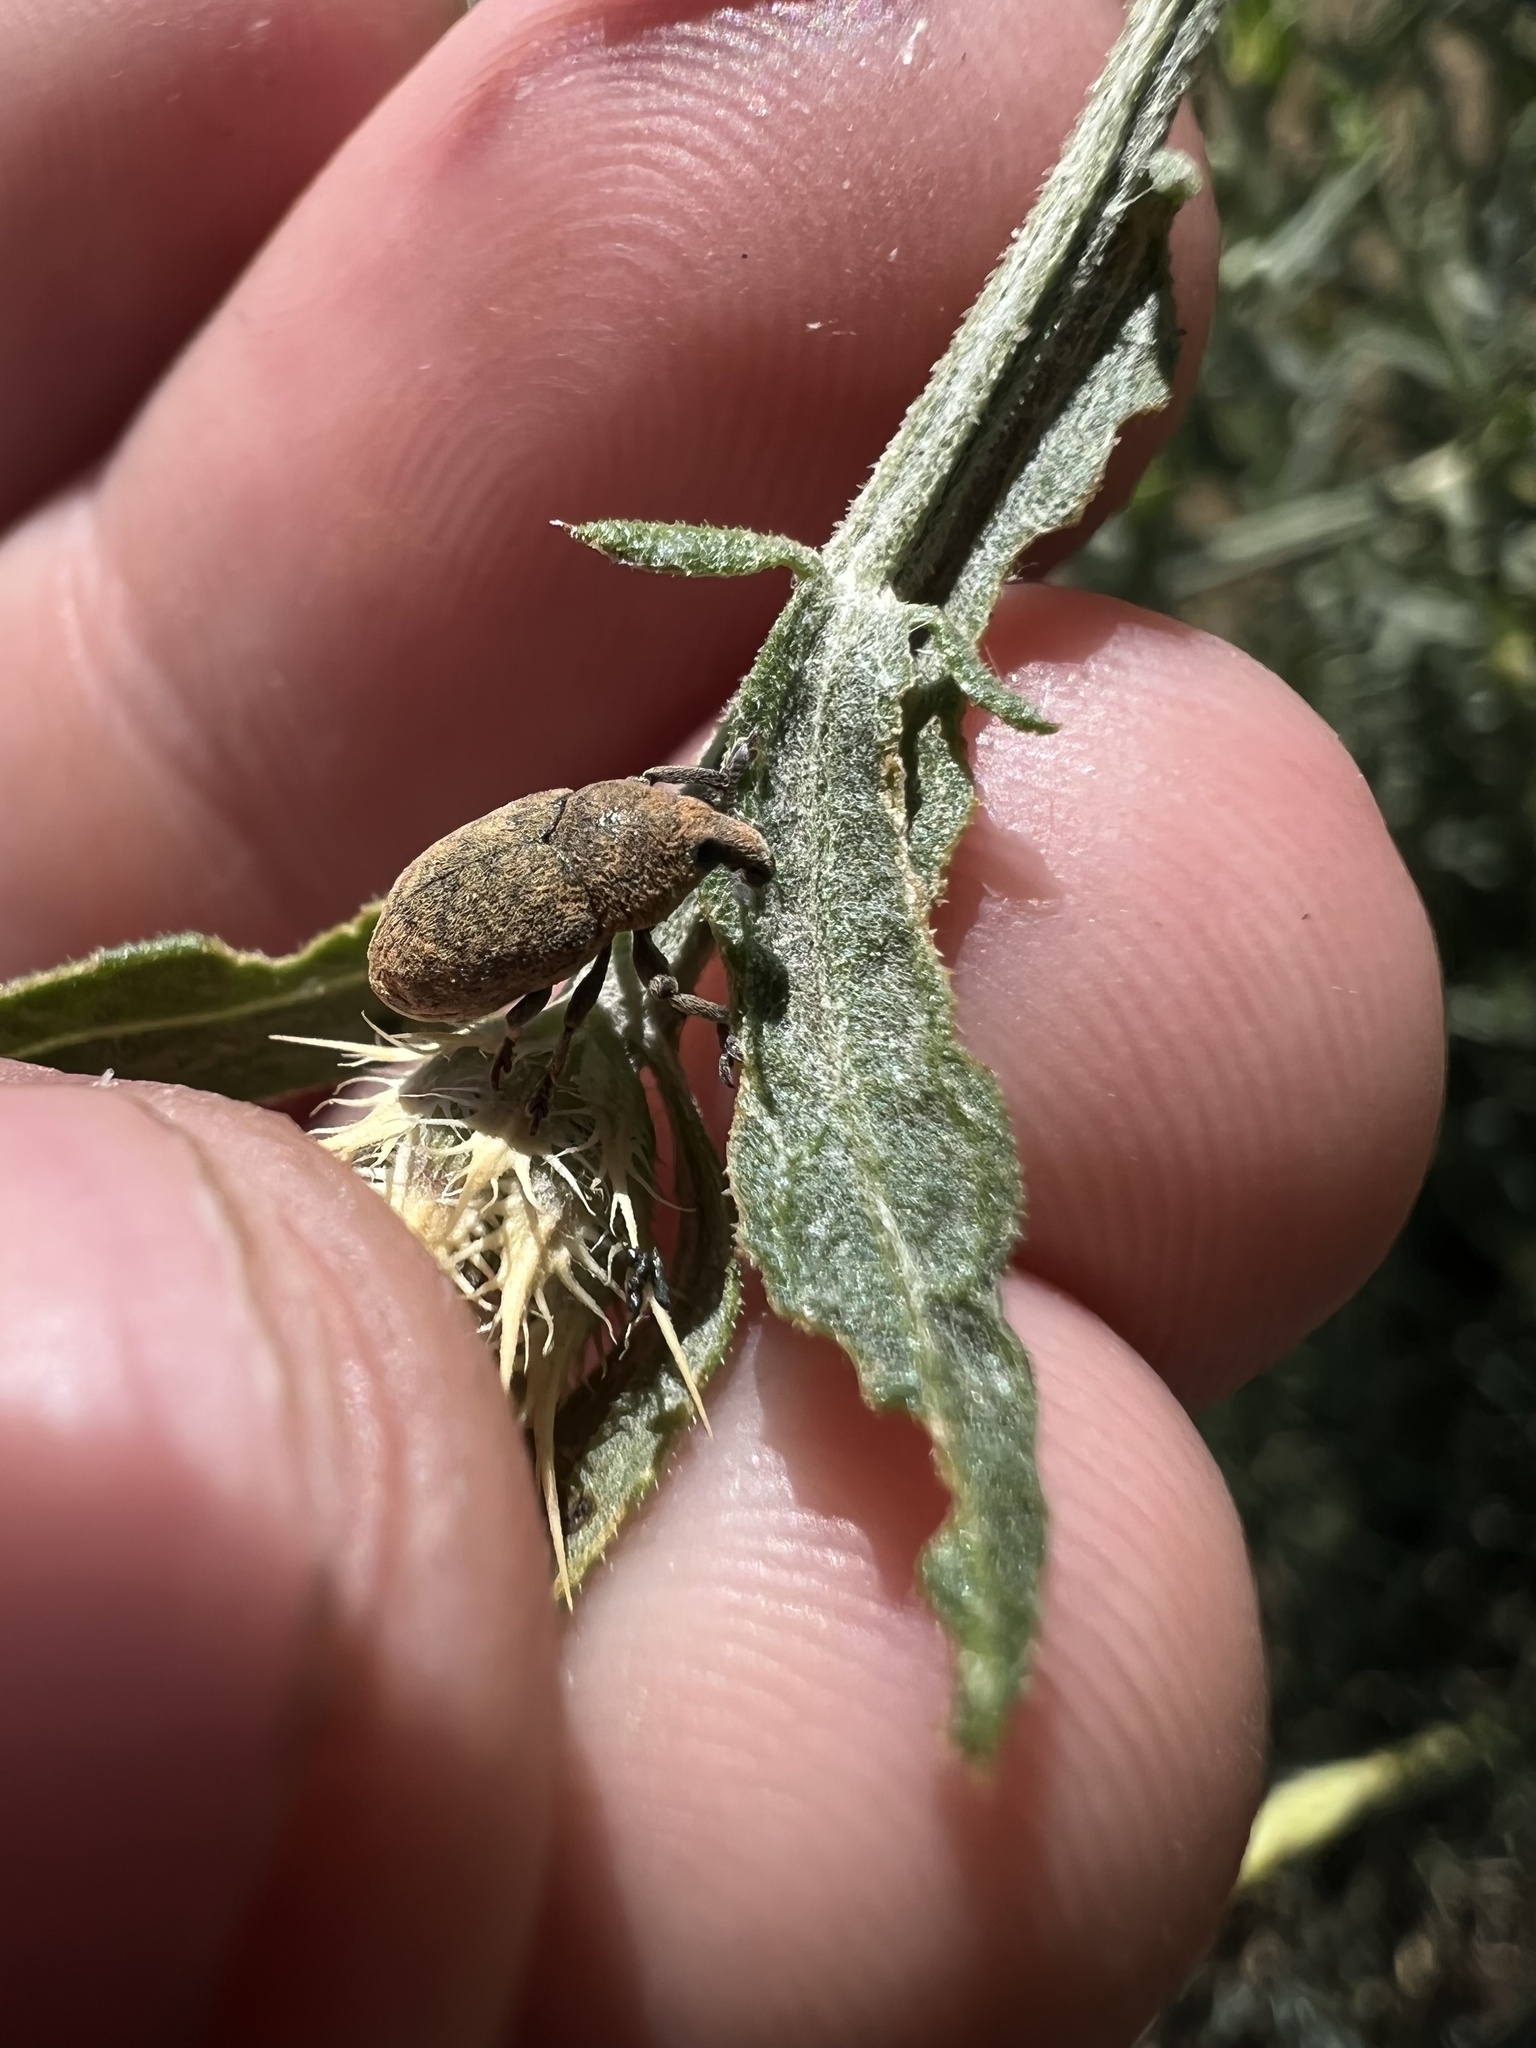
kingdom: Animalia
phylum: Arthropoda
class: Insecta
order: Coleoptera
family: Curculionidae
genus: Larinus
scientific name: Larinus obtusus
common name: Weevil
